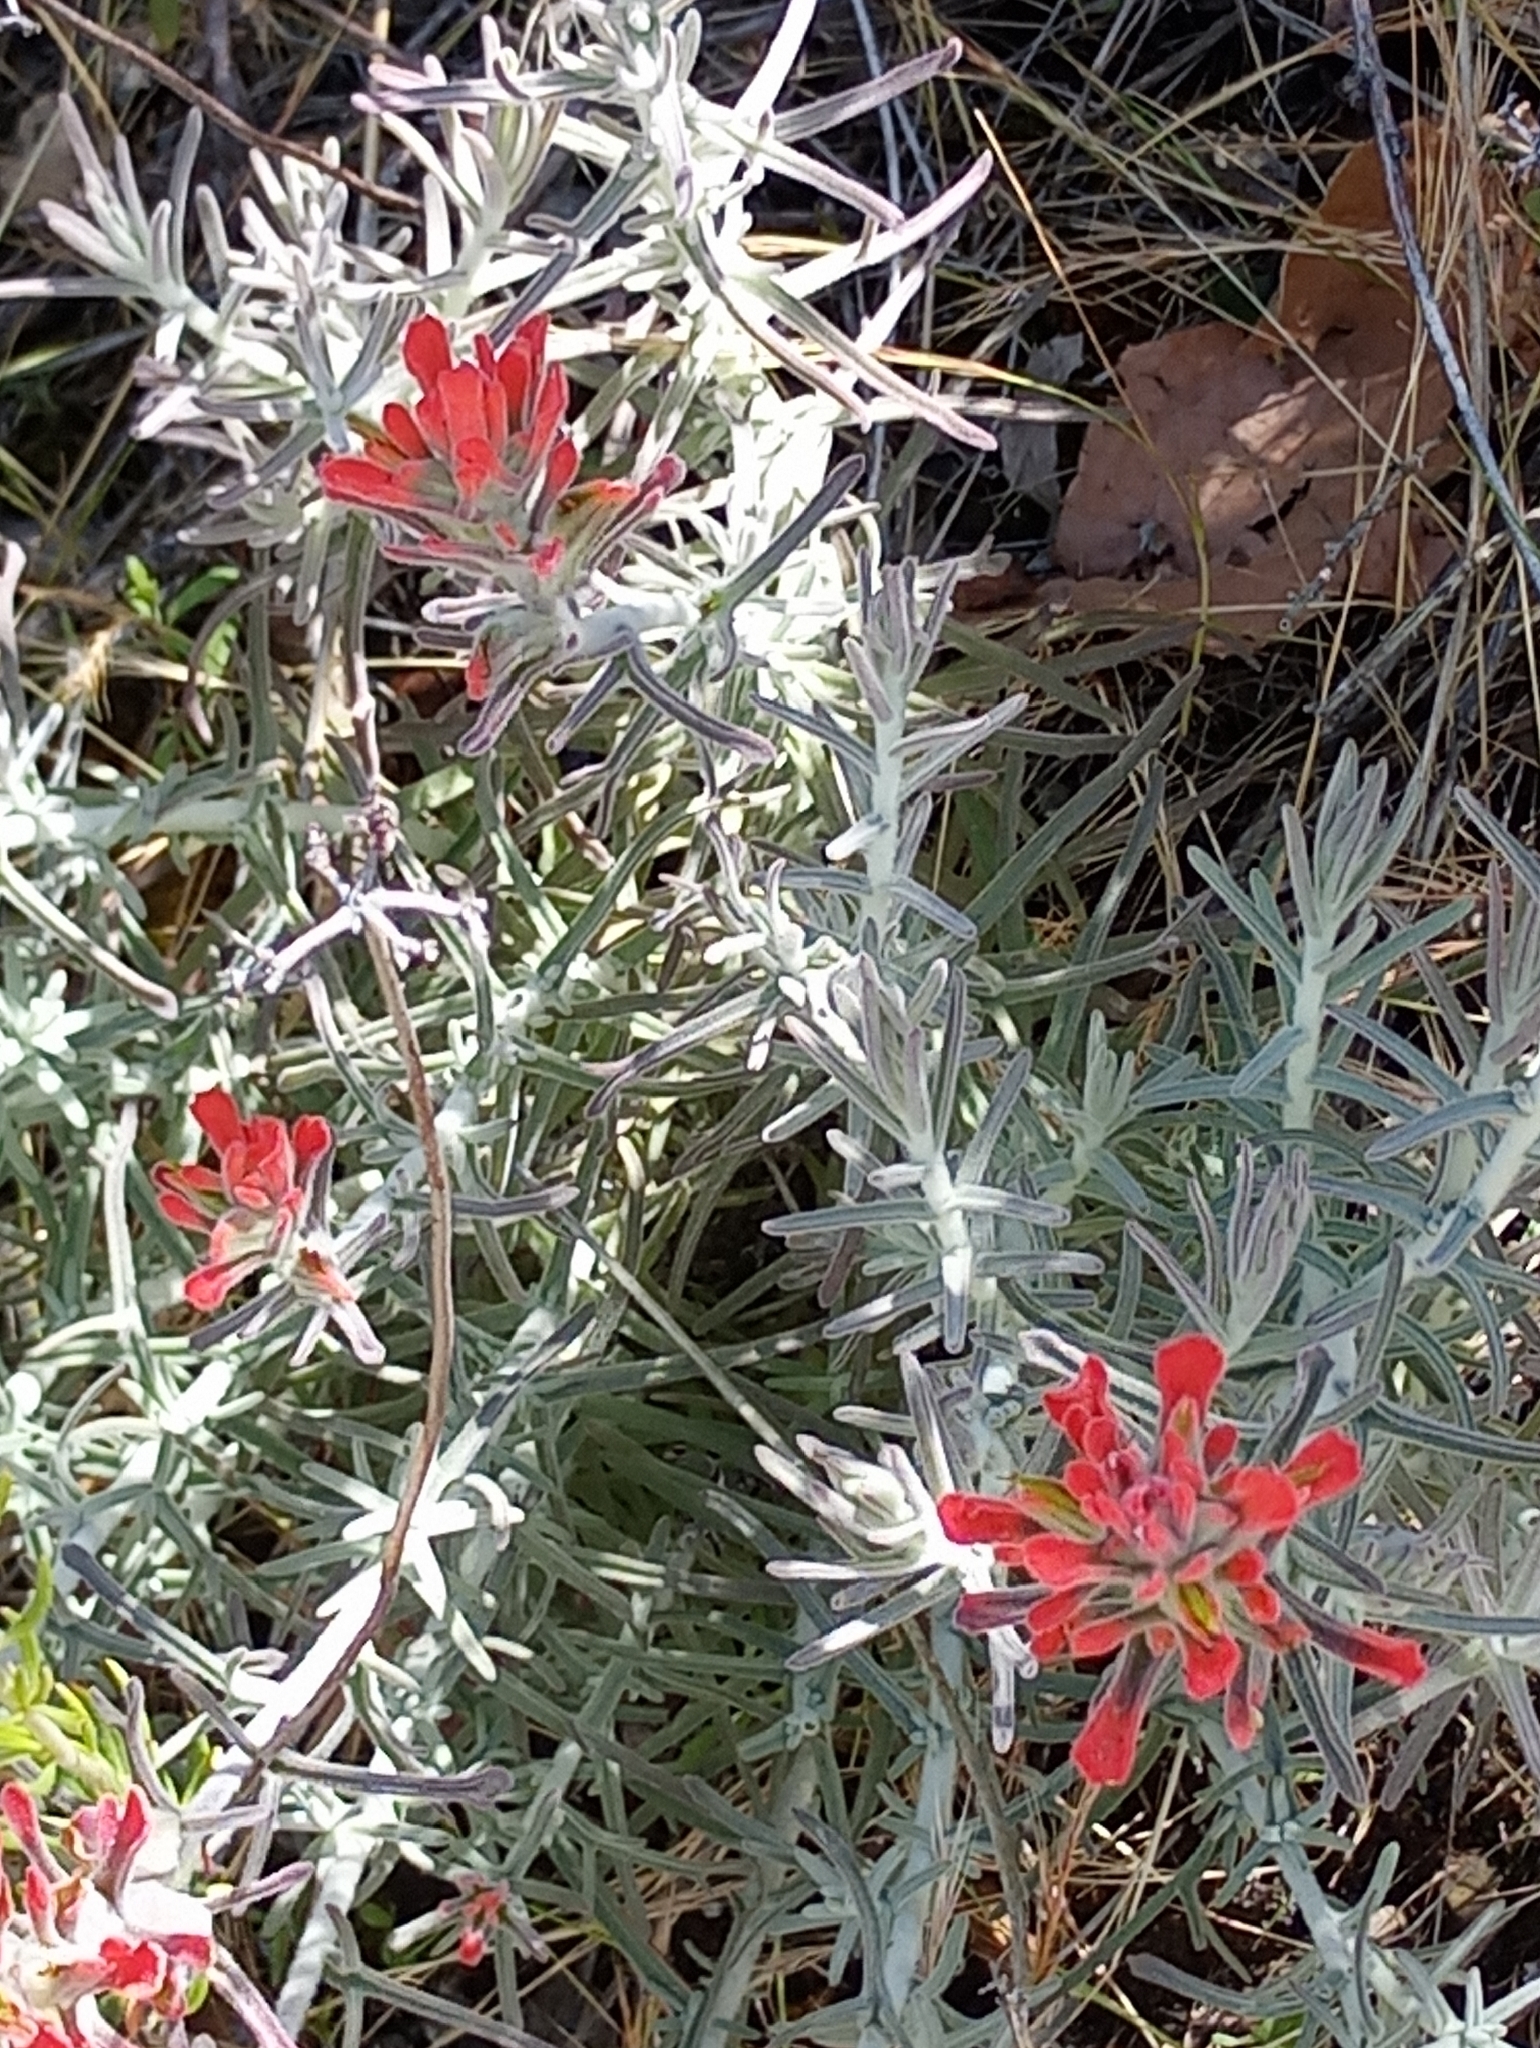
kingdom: Plantae
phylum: Tracheophyta
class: Magnoliopsida
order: Lamiales
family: Orobanchaceae
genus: Castilleja
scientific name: Castilleja foliolosa
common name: Woolly indian paintbrush
